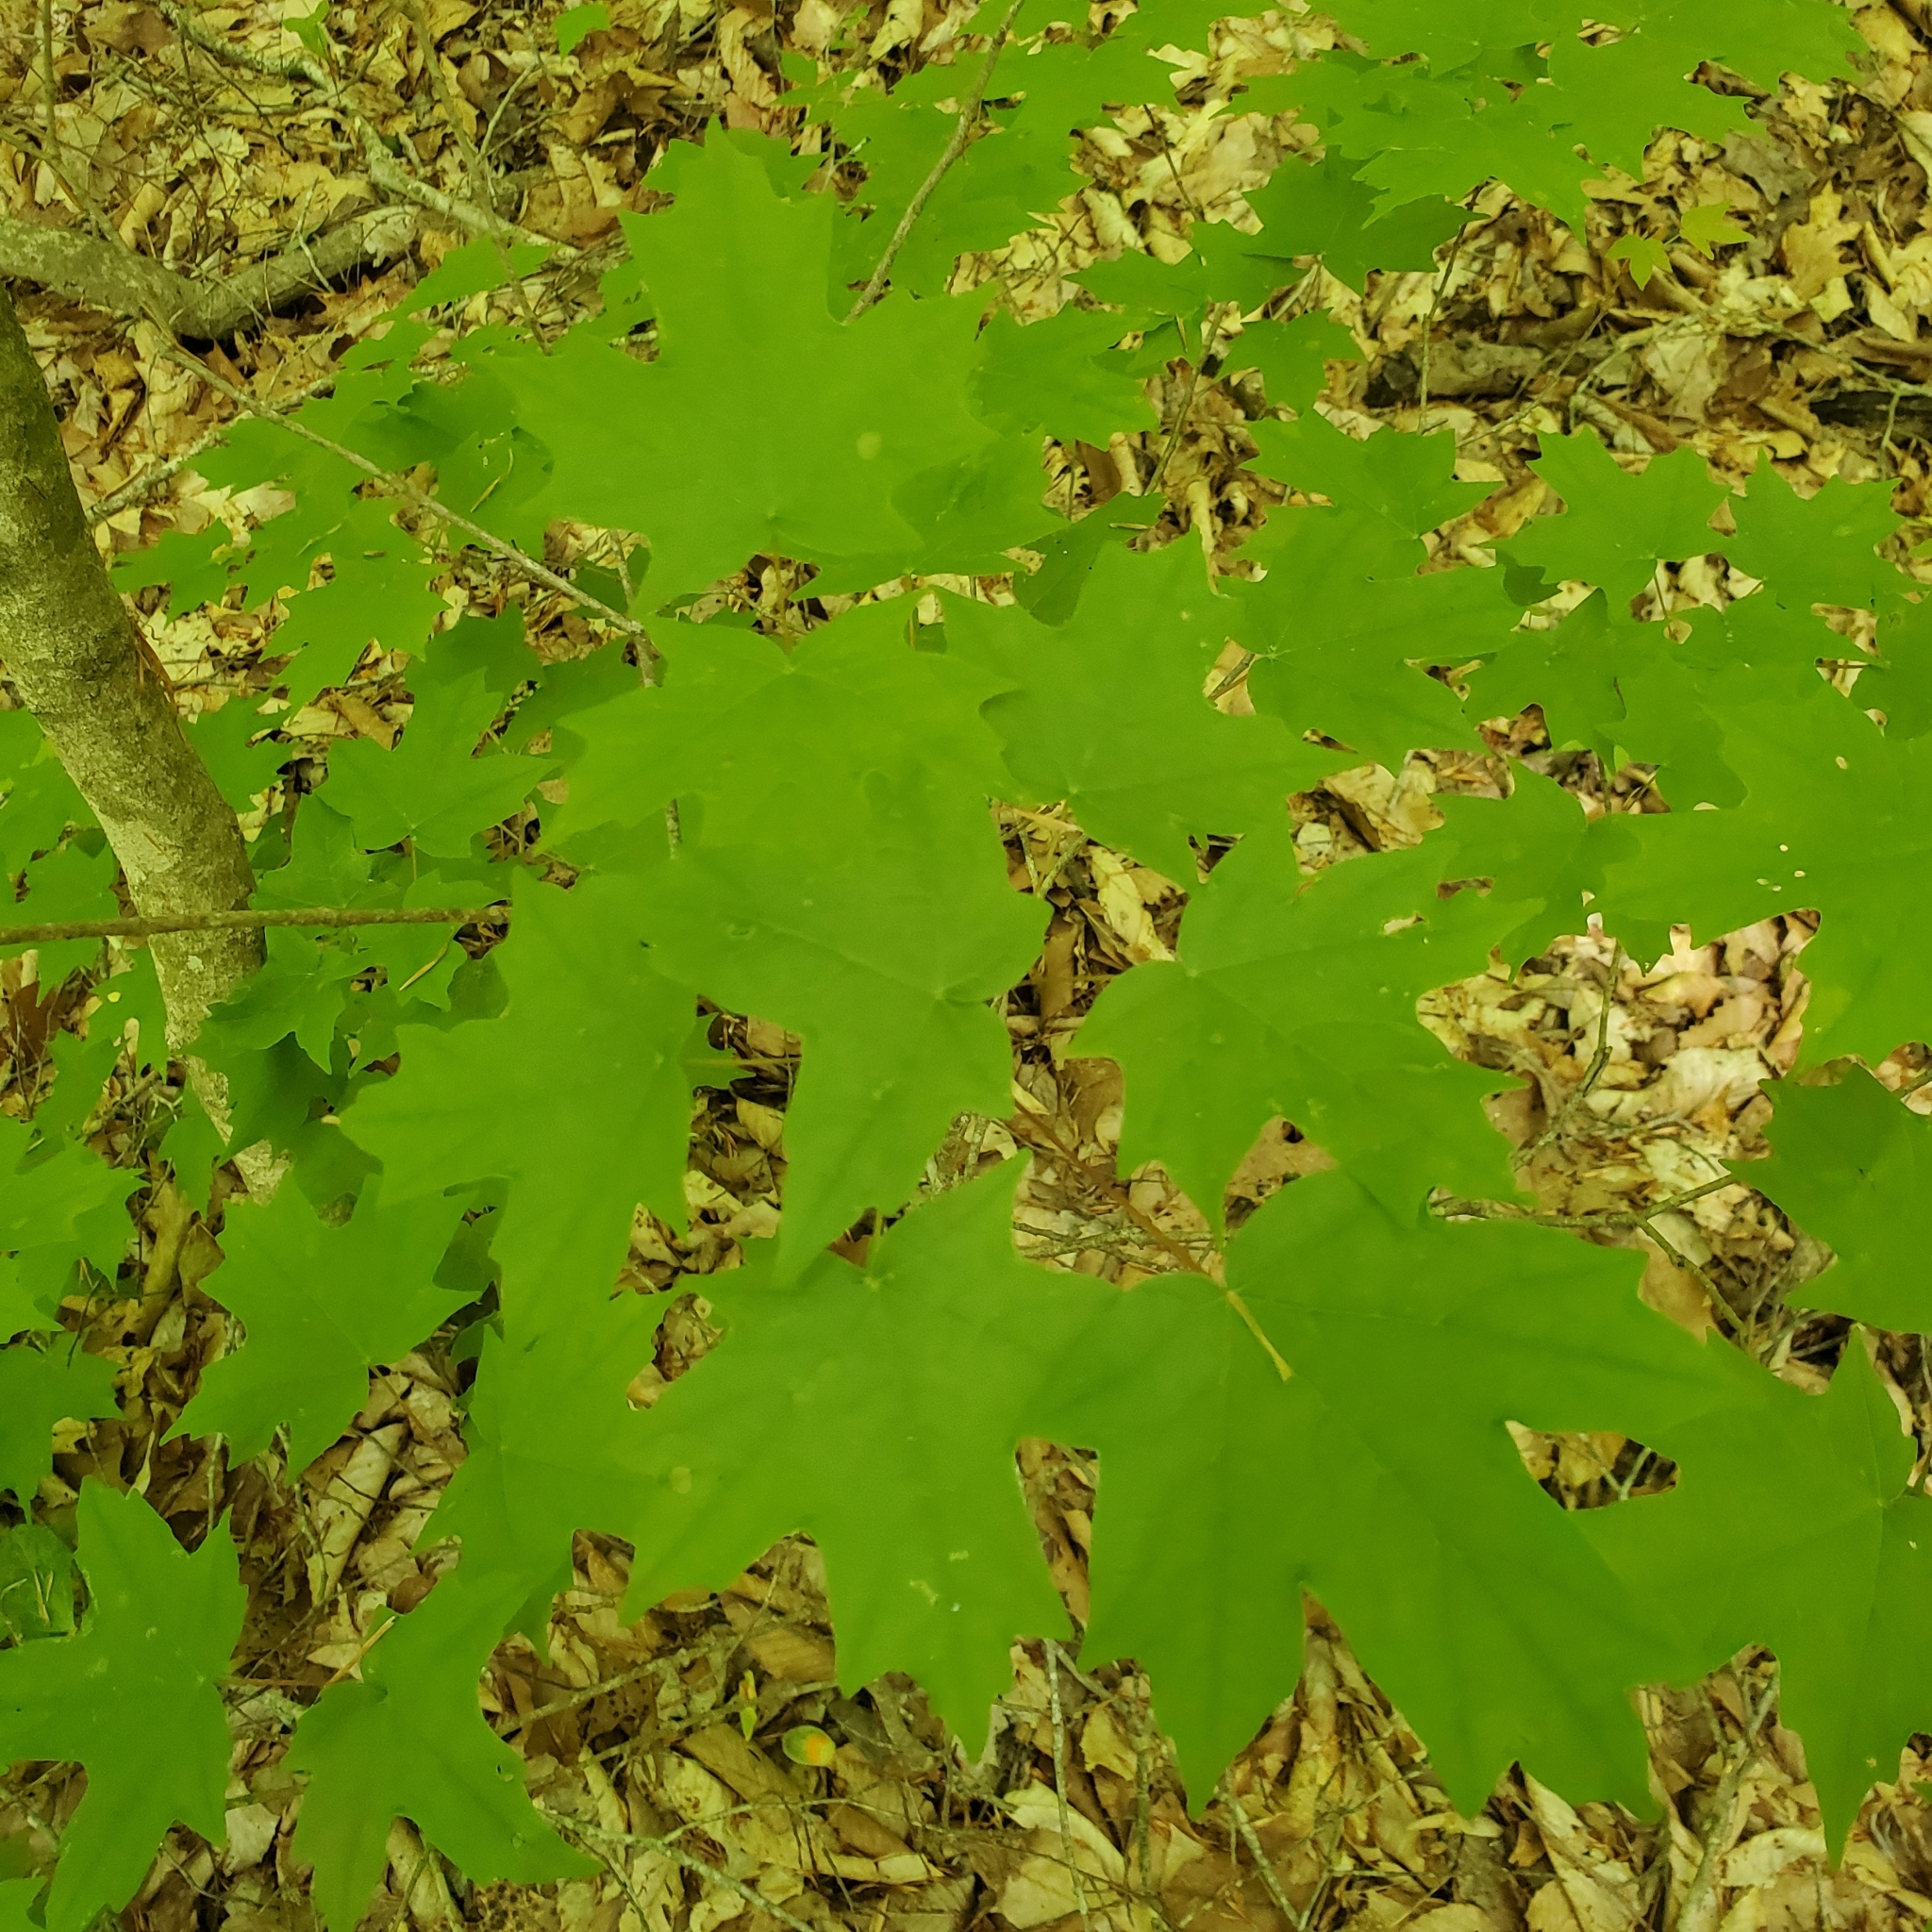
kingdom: Plantae
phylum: Tracheophyta
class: Magnoliopsida
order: Sapindales
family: Sapindaceae
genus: Acer
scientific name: Acer saccharum
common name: Sugar maple
